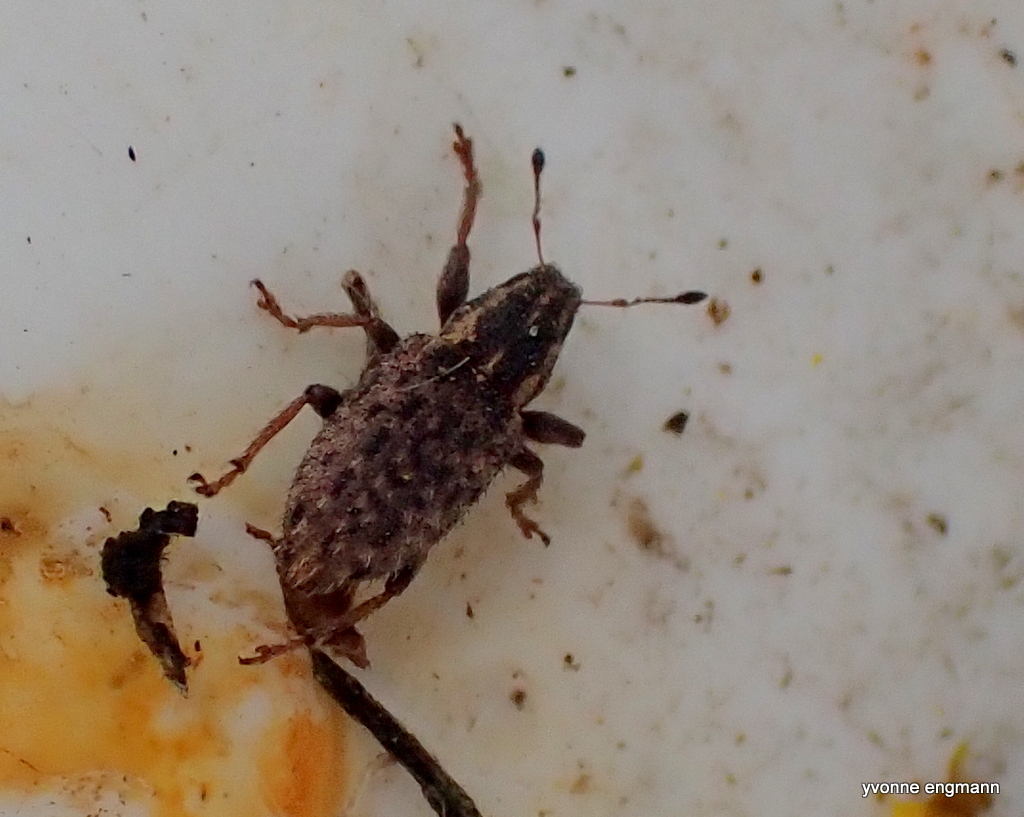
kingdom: Animalia
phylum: Arthropoda
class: Insecta
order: Coleoptera
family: Curculionidae
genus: Sitona
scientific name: Sitona hispidulus
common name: Clover weevil
